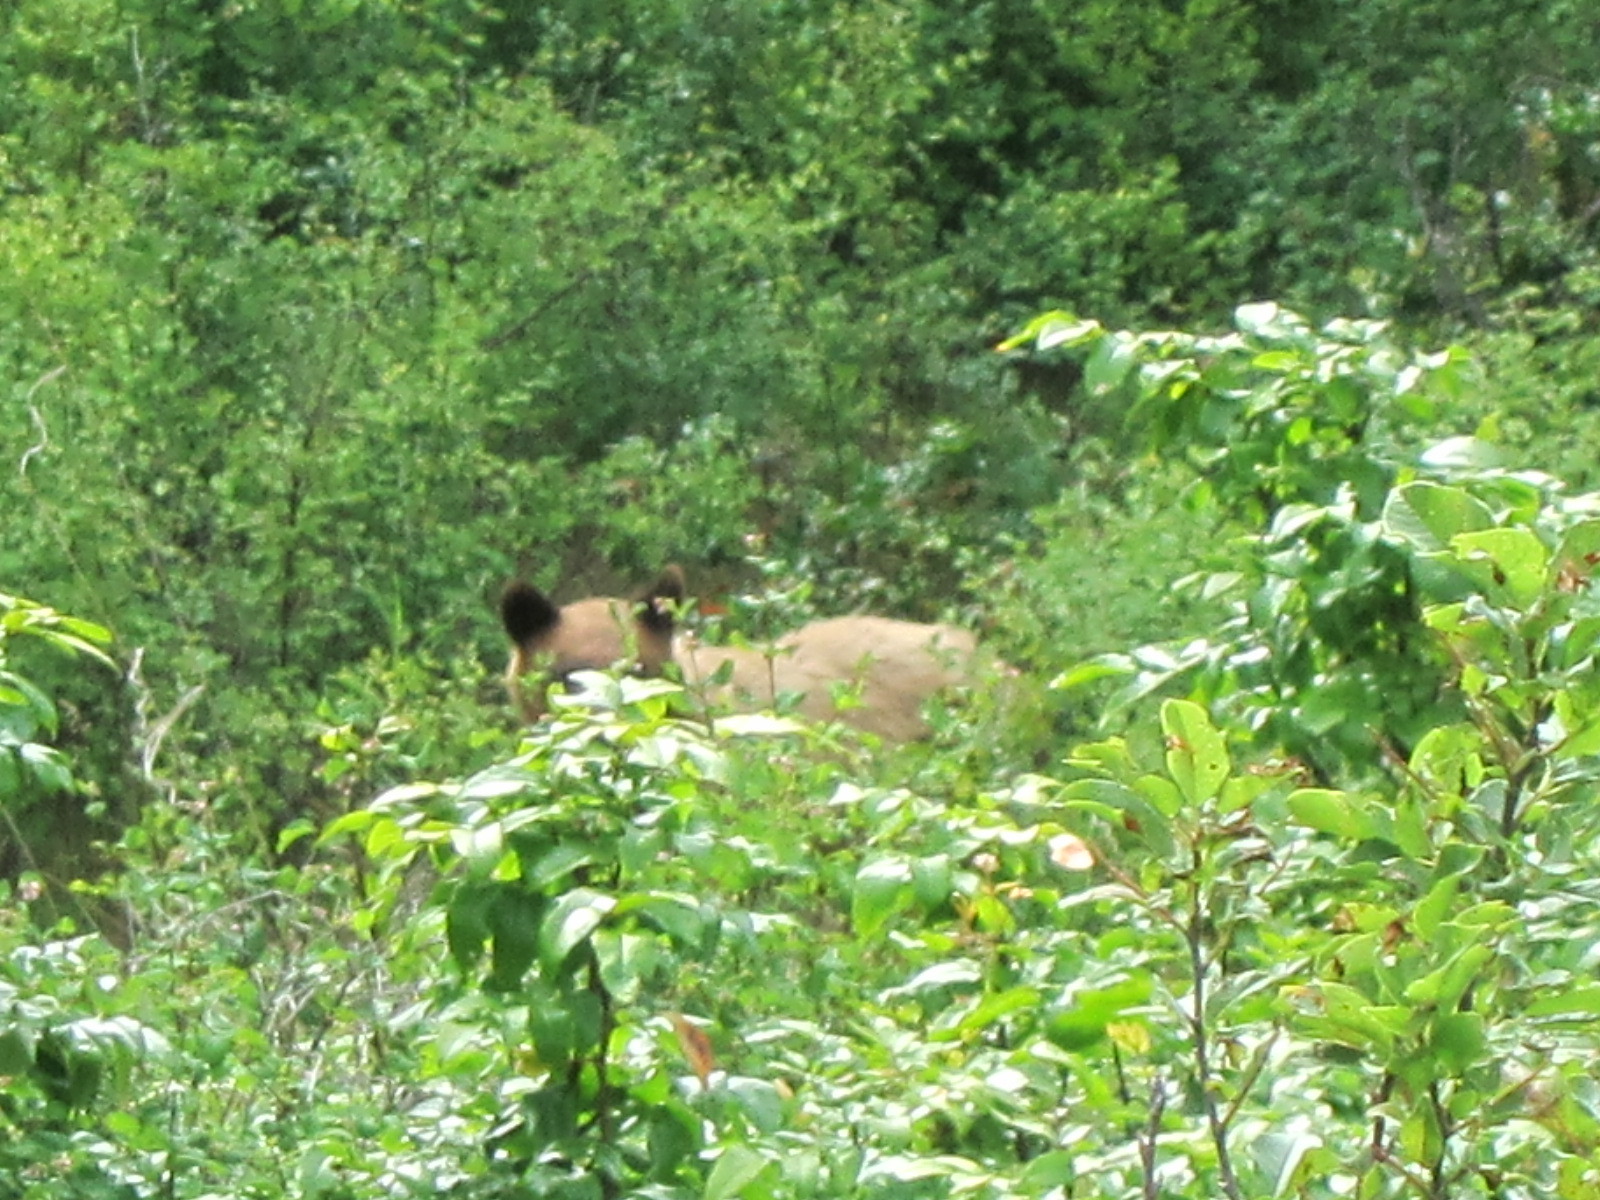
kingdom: Animalia
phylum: Chordata
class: Mammalia
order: Carnivora
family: Ursidae
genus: Ursus
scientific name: Ursus americanus
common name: American black bear
